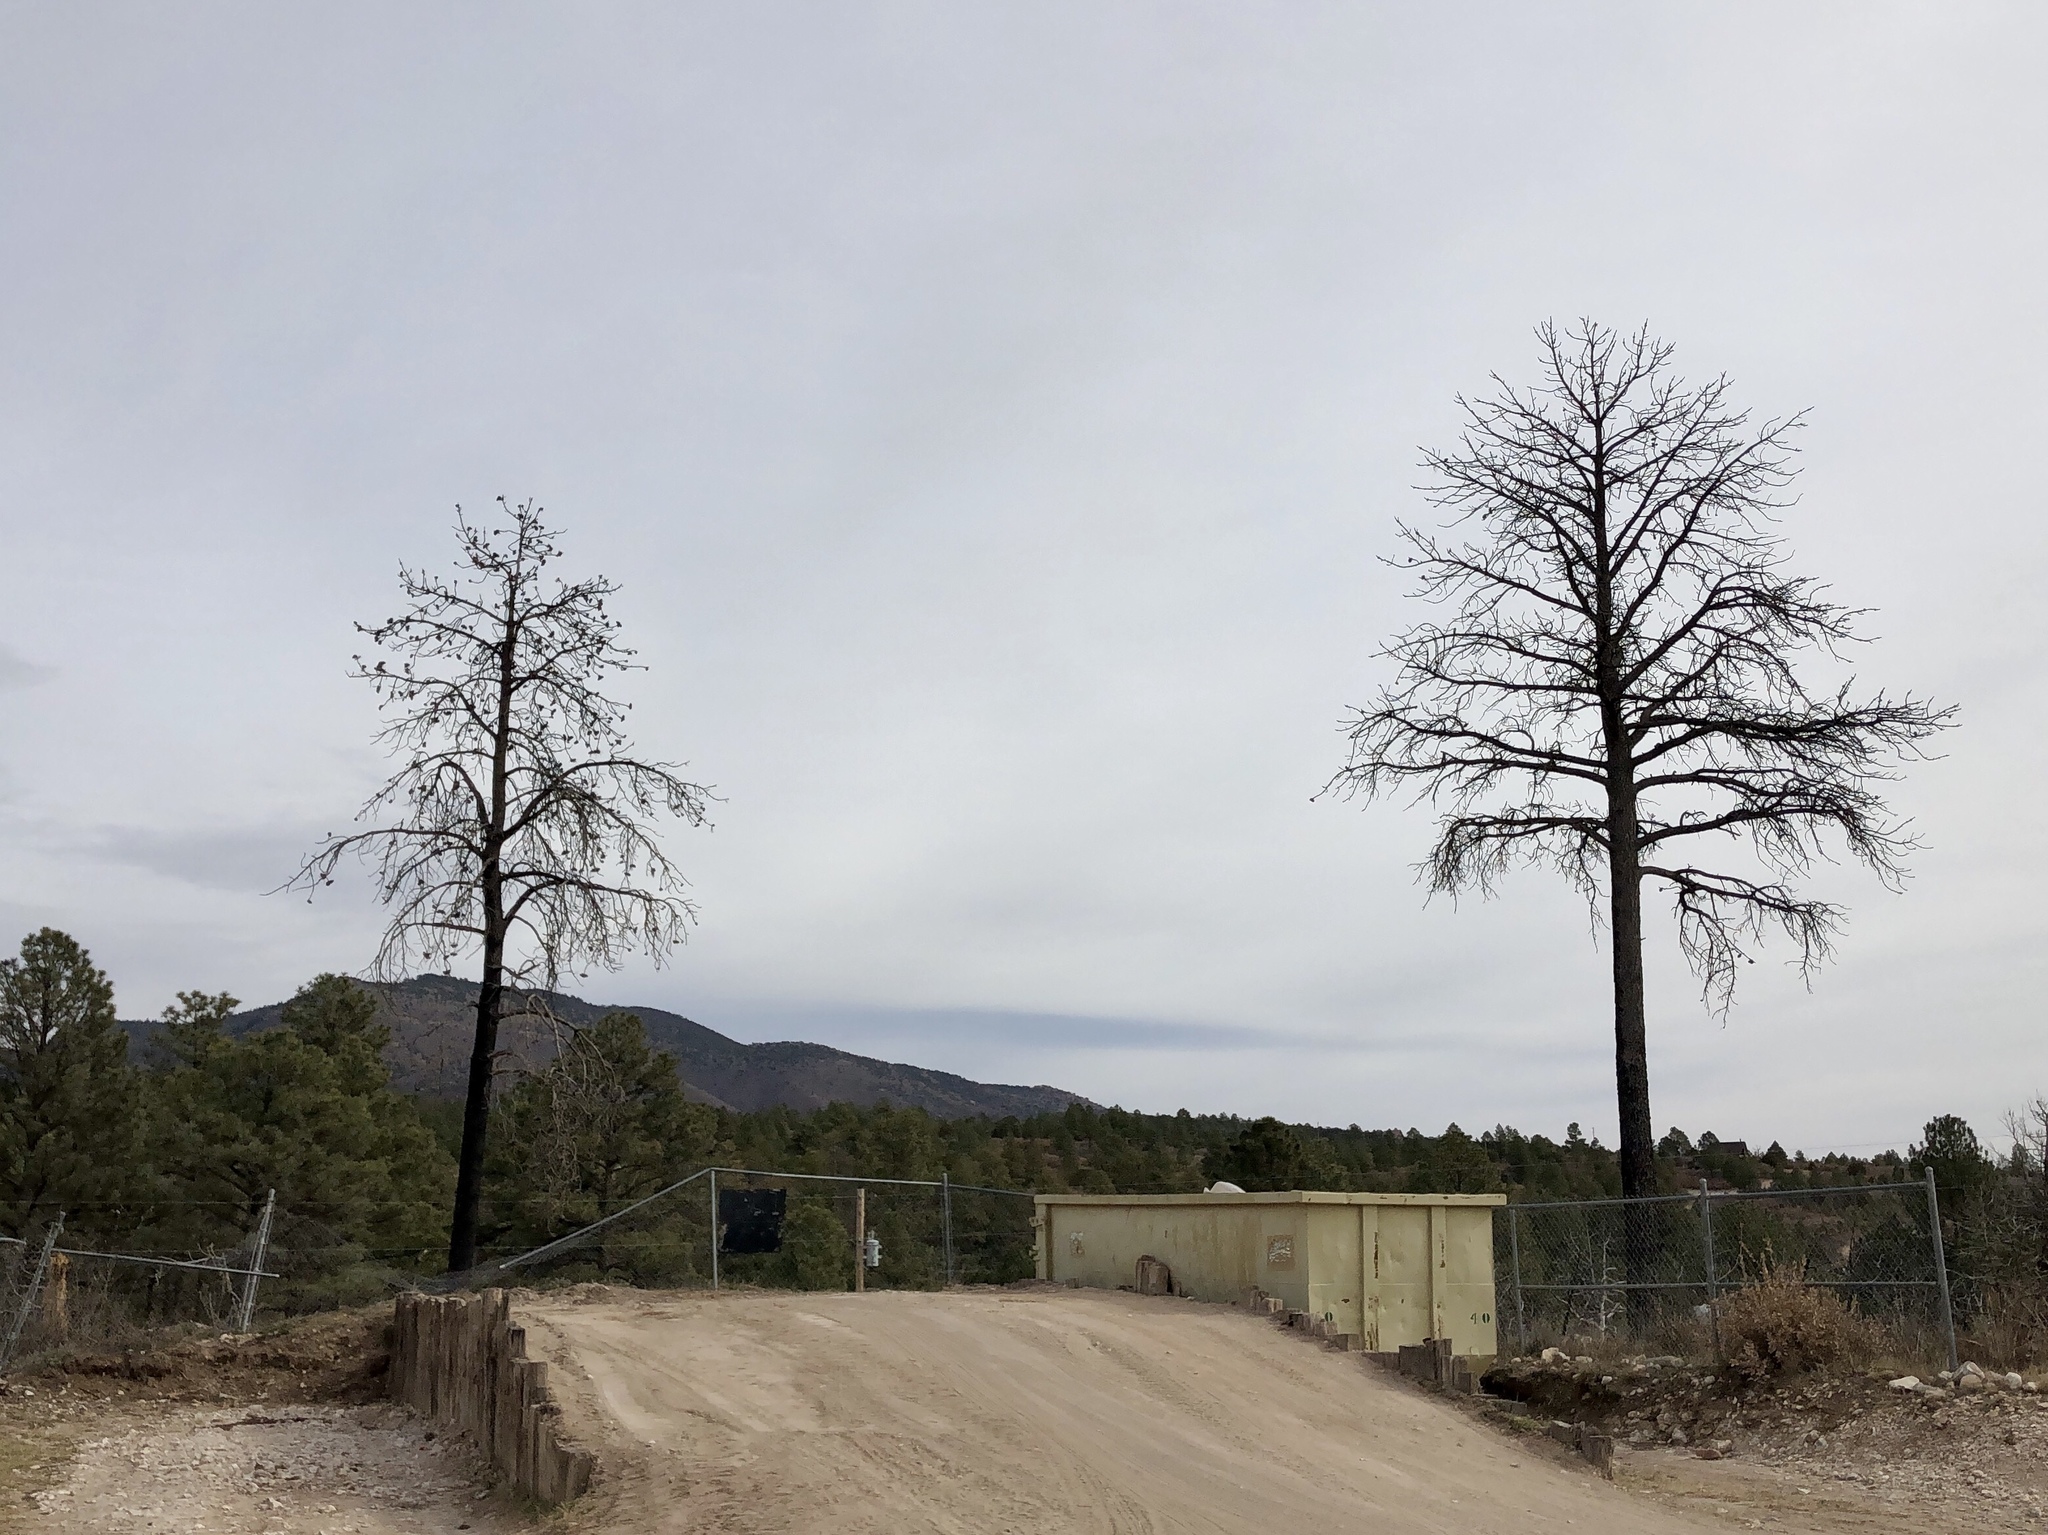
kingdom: Plantae
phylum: Tracheophyta
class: Pinopsida
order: Pinales
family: Pinaceae
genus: Pinus
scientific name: Pinus ponderosa
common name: Western yellow-pine
